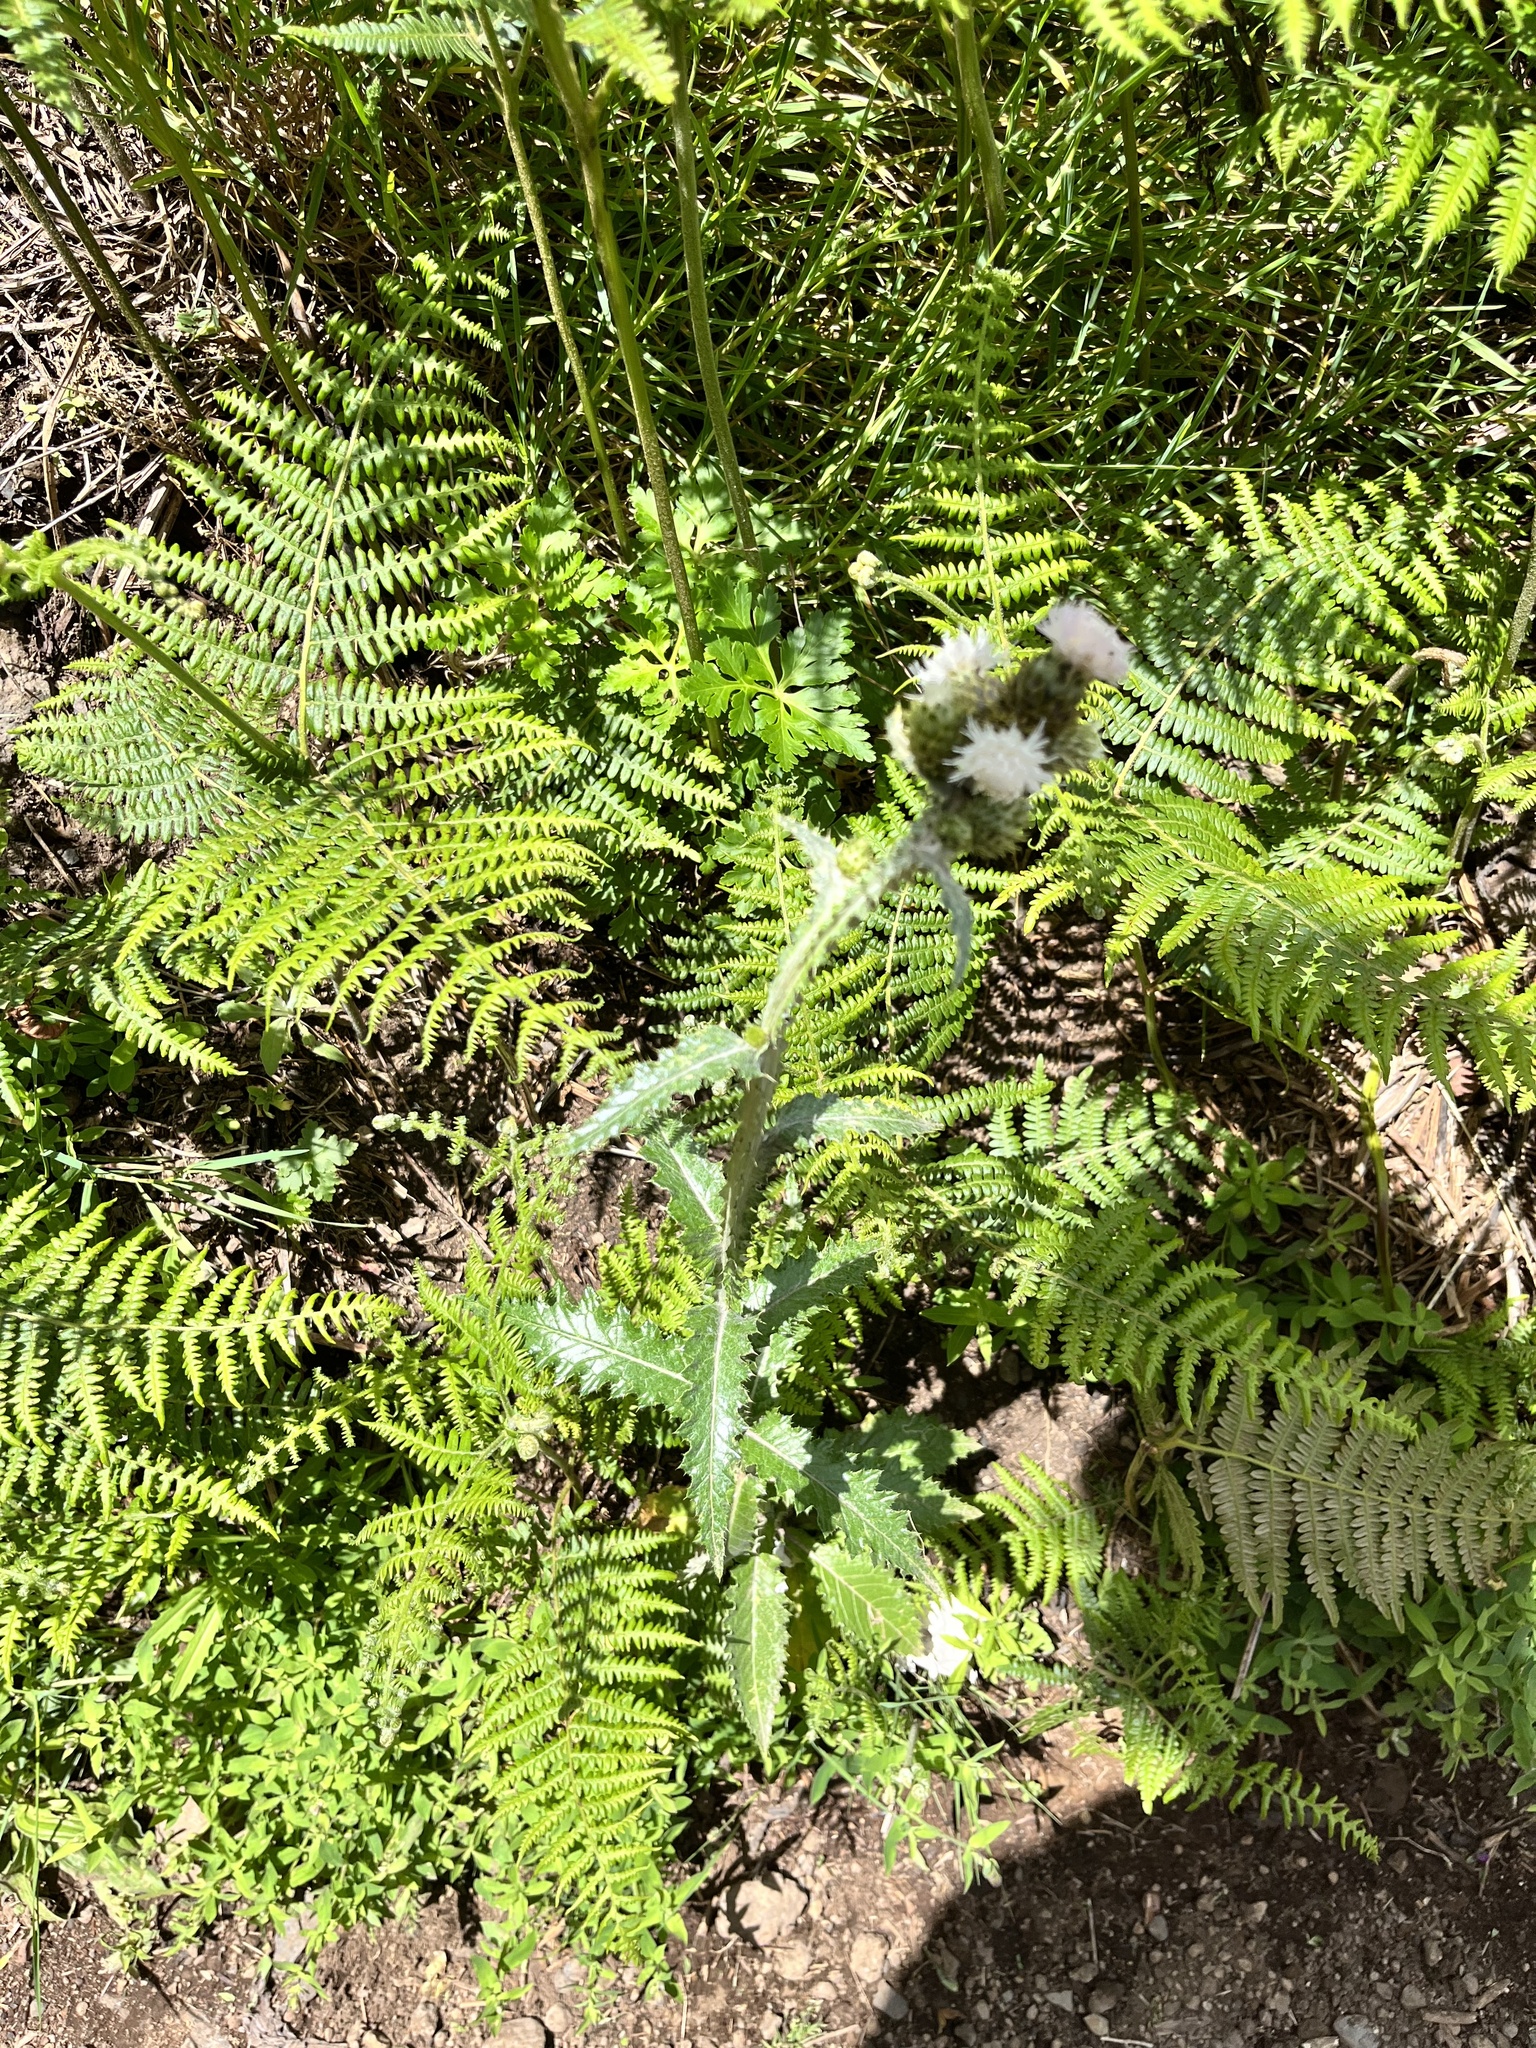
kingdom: Plantae
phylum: Tracheophyta
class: Magnoliopsida
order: Asterales
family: Asteraceae
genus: Carduus
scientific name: Carduus squarrosus
